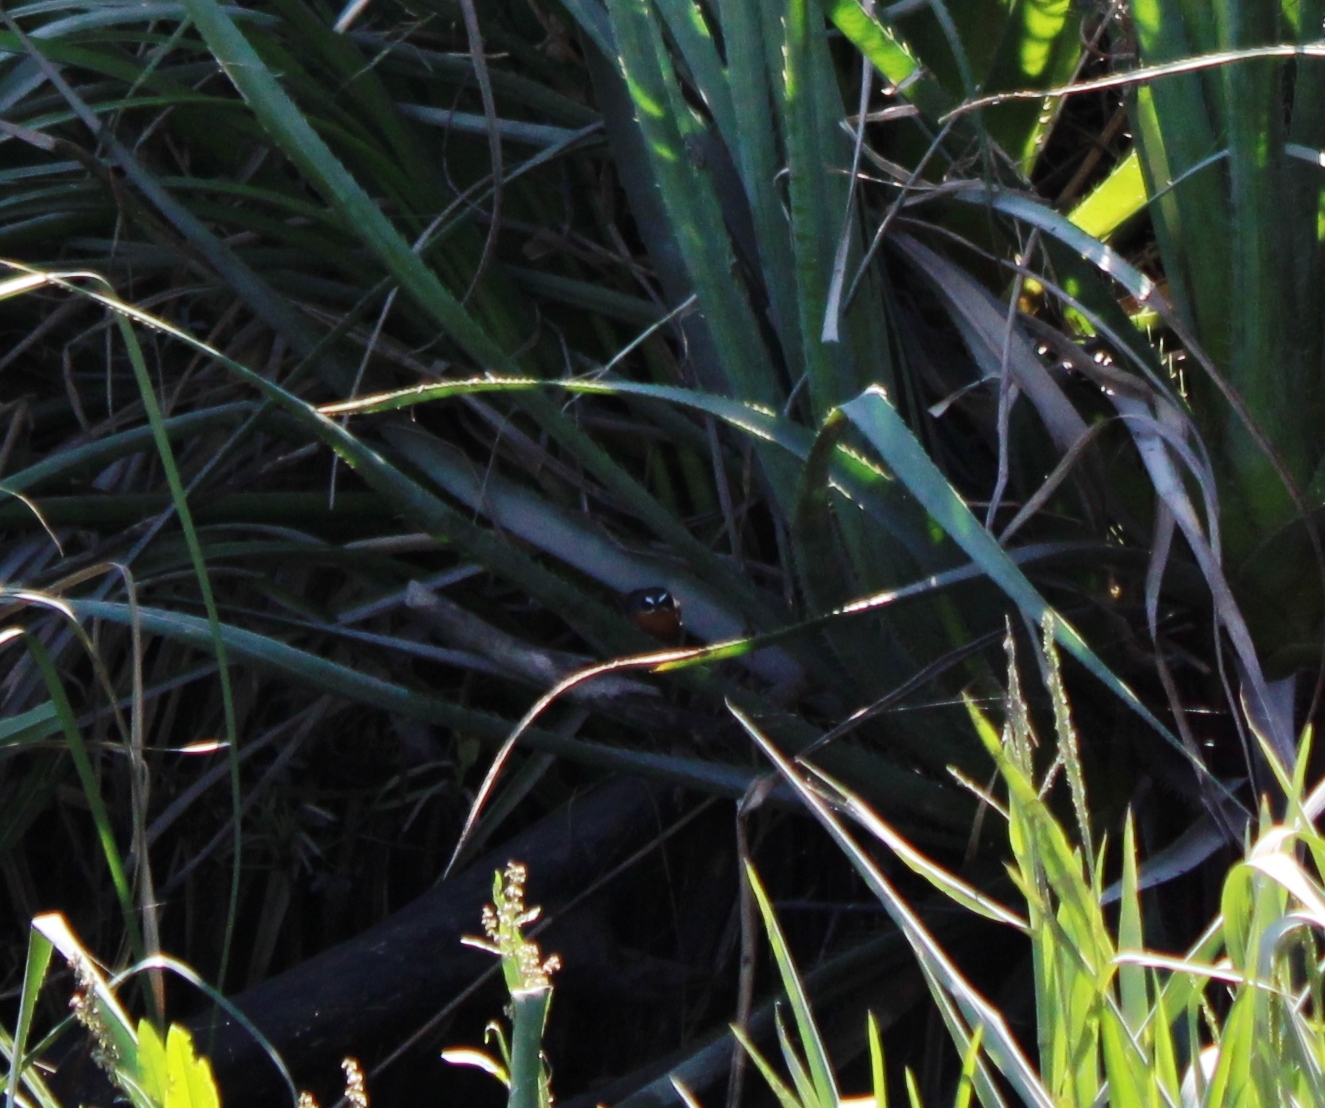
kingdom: Animalia
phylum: Chordata
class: Aves
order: Passeriformes
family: Thraupidae
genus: Poospiza
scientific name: Poospiza nigrorufa
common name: Black-and-rufous warbling finch
